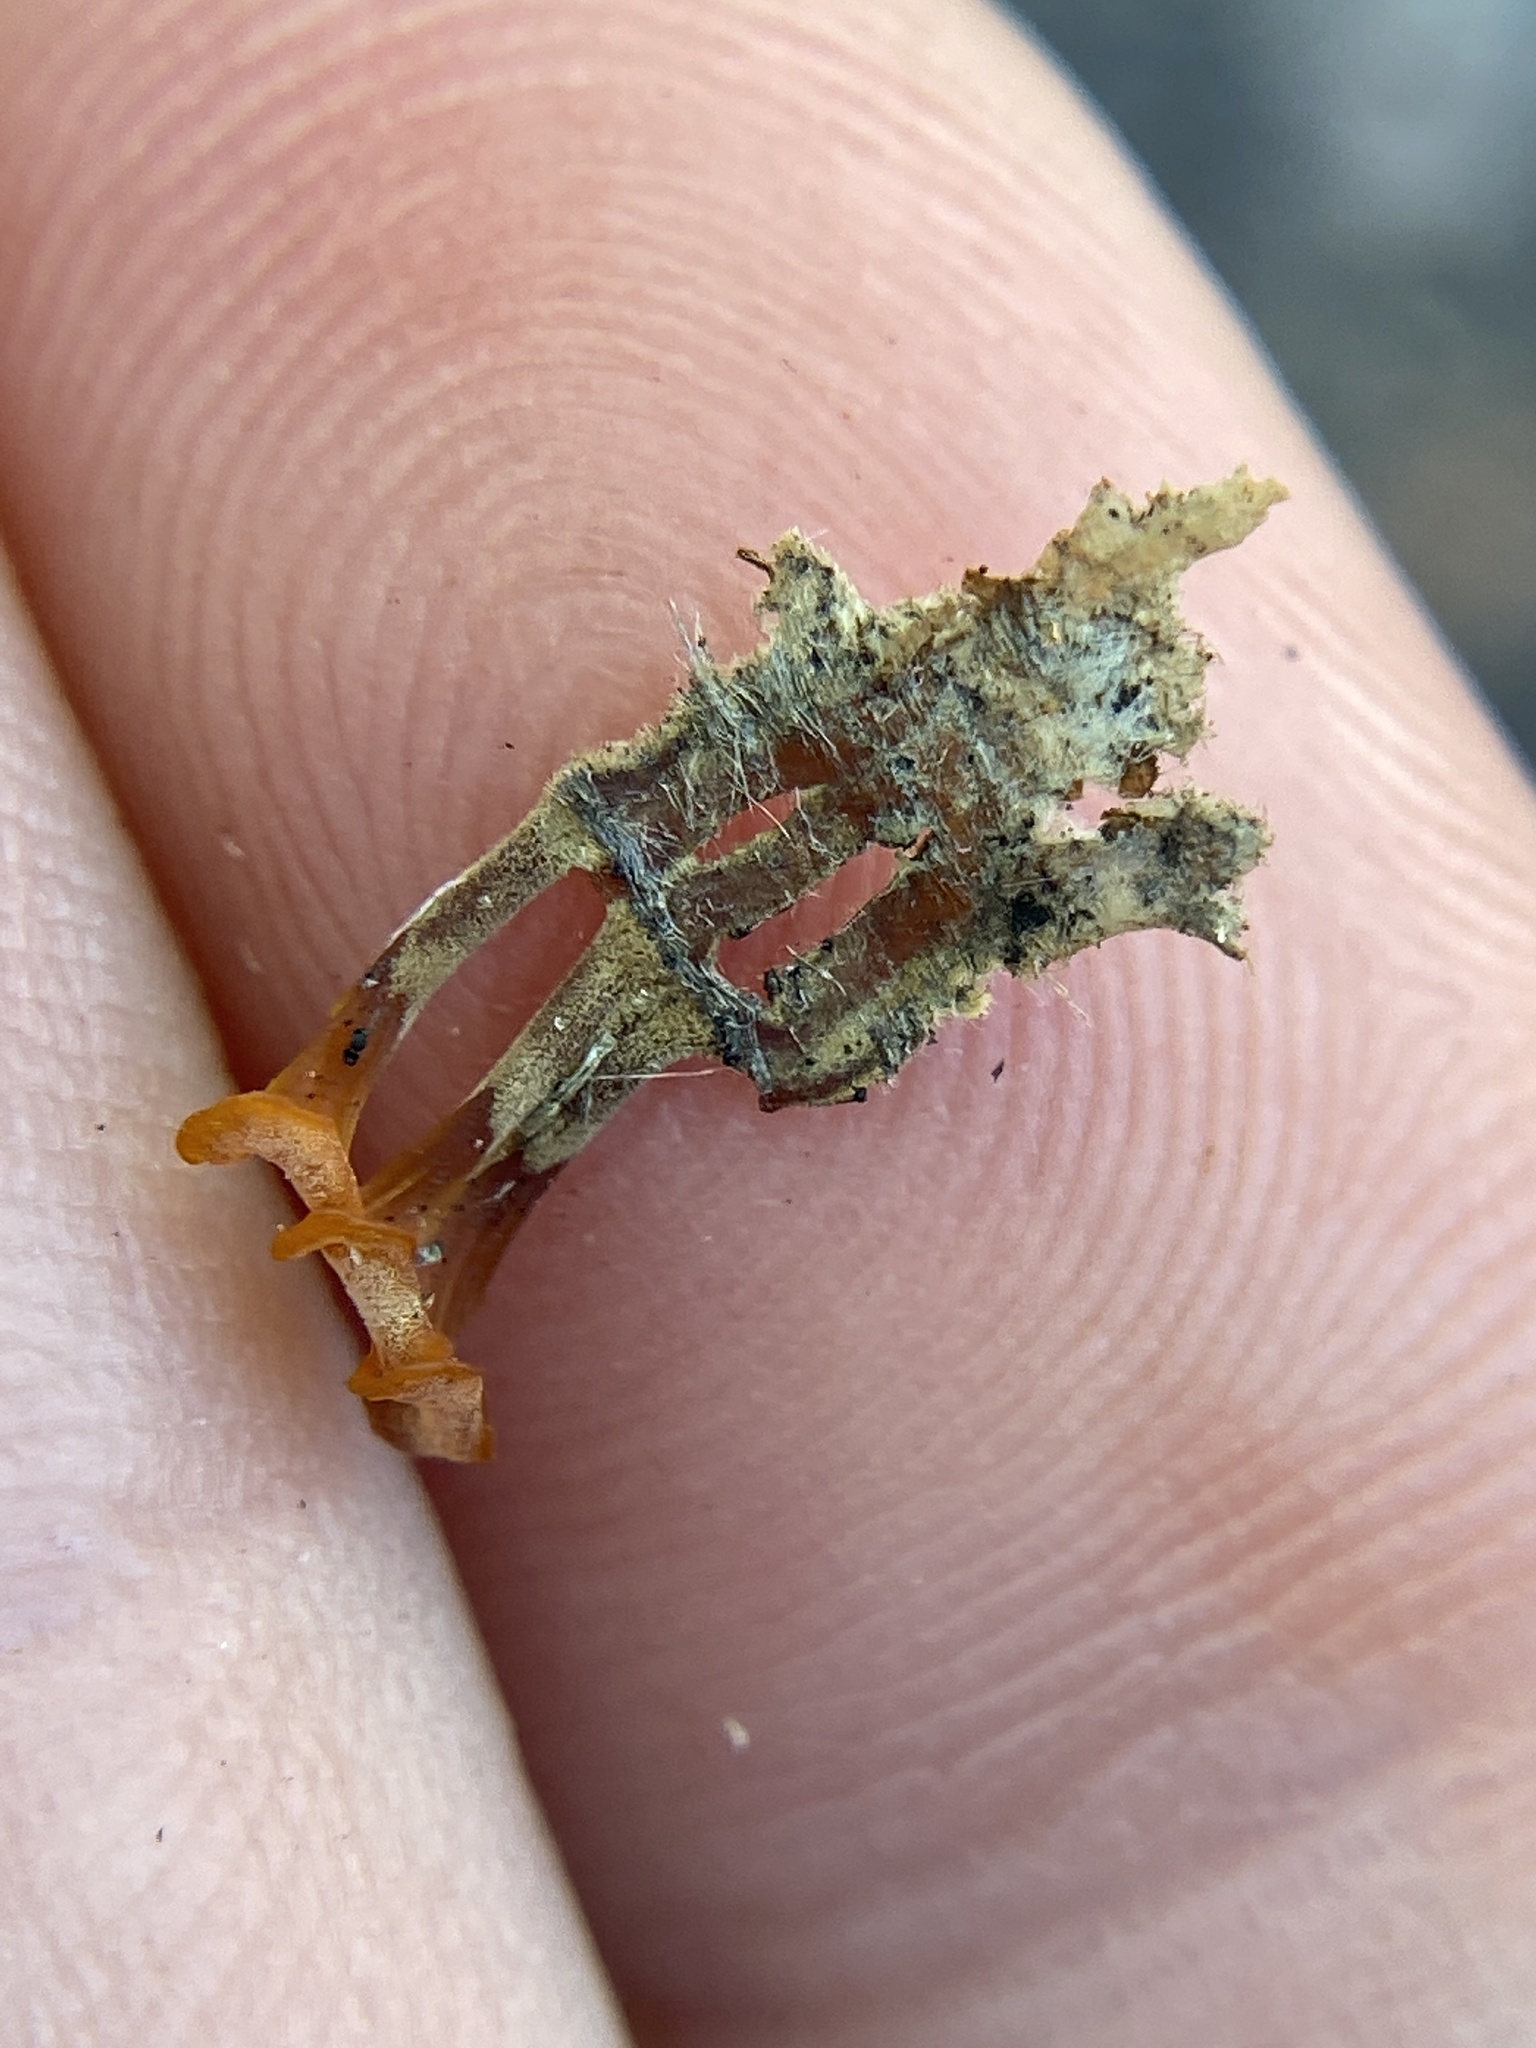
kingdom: Fungi
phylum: Basidiomycota
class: Dacrymycetes
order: Dacrymycetales
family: Dacrymycetaceae
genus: Dacrymyces
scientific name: Dacrymyces spathularius
